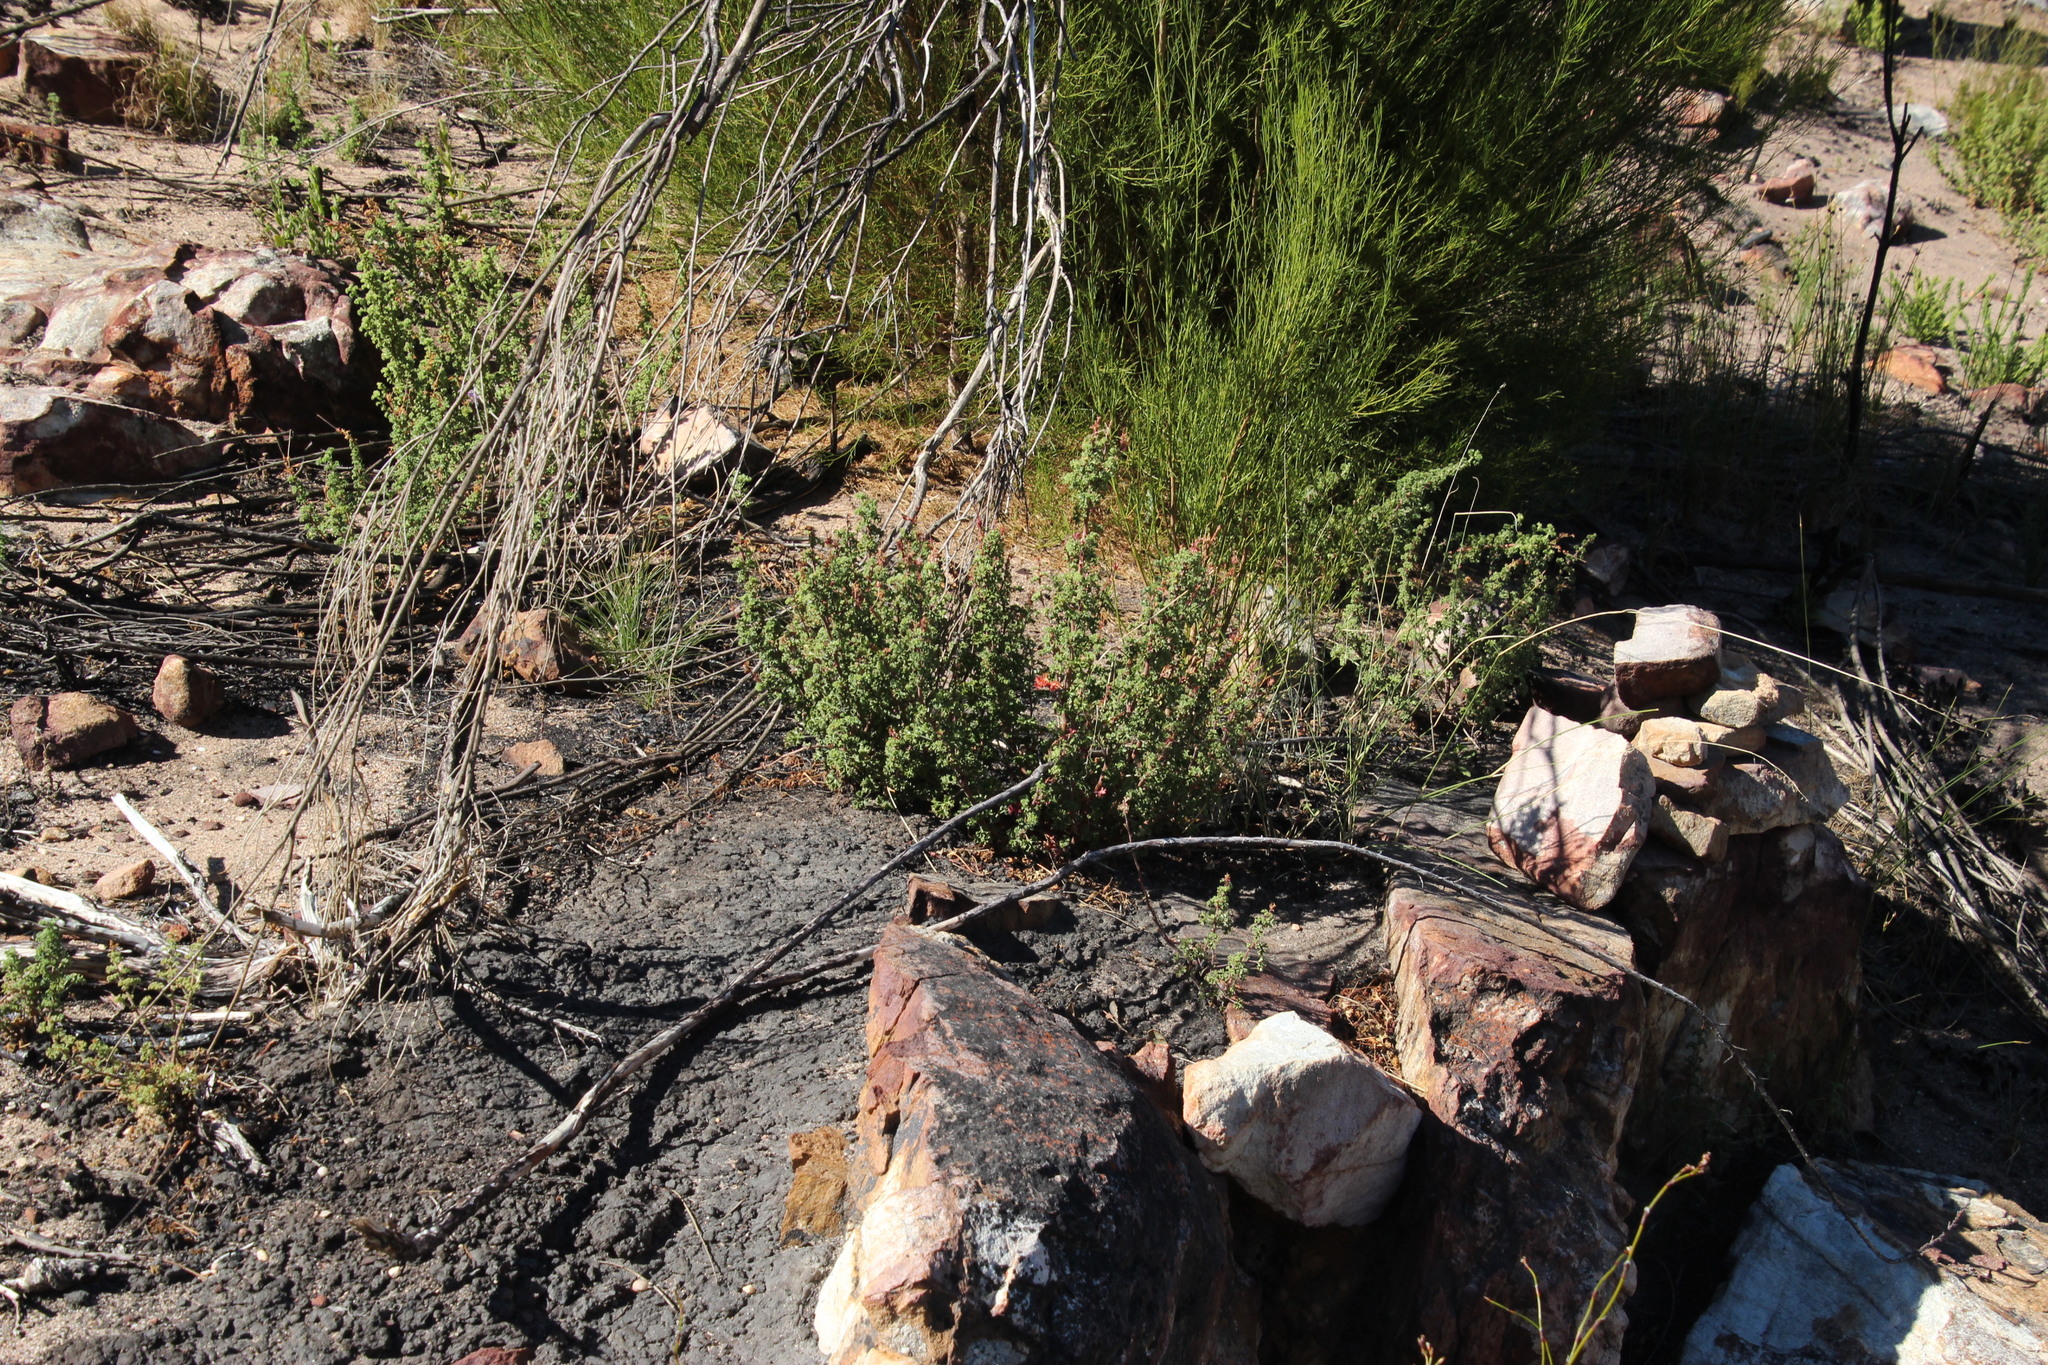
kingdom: Plantae
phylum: Tracheophyta
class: Magnoliopsida
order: Geraniales
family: Geraniaceae
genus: Pelargonium
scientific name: Pelargonium englerianum
